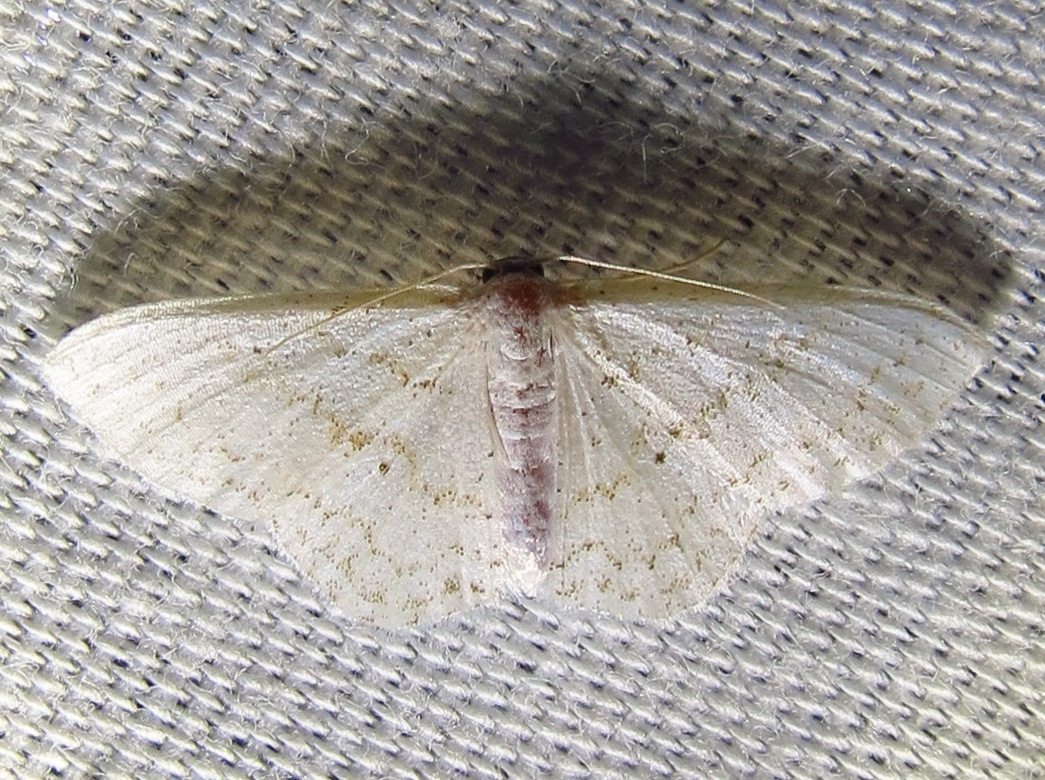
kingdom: Animalia
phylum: Arthropoda
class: Insecta
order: Lepidoptera
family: Geometridae
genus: Idaea
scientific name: Idaea tacturata
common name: Dot-lined wave
